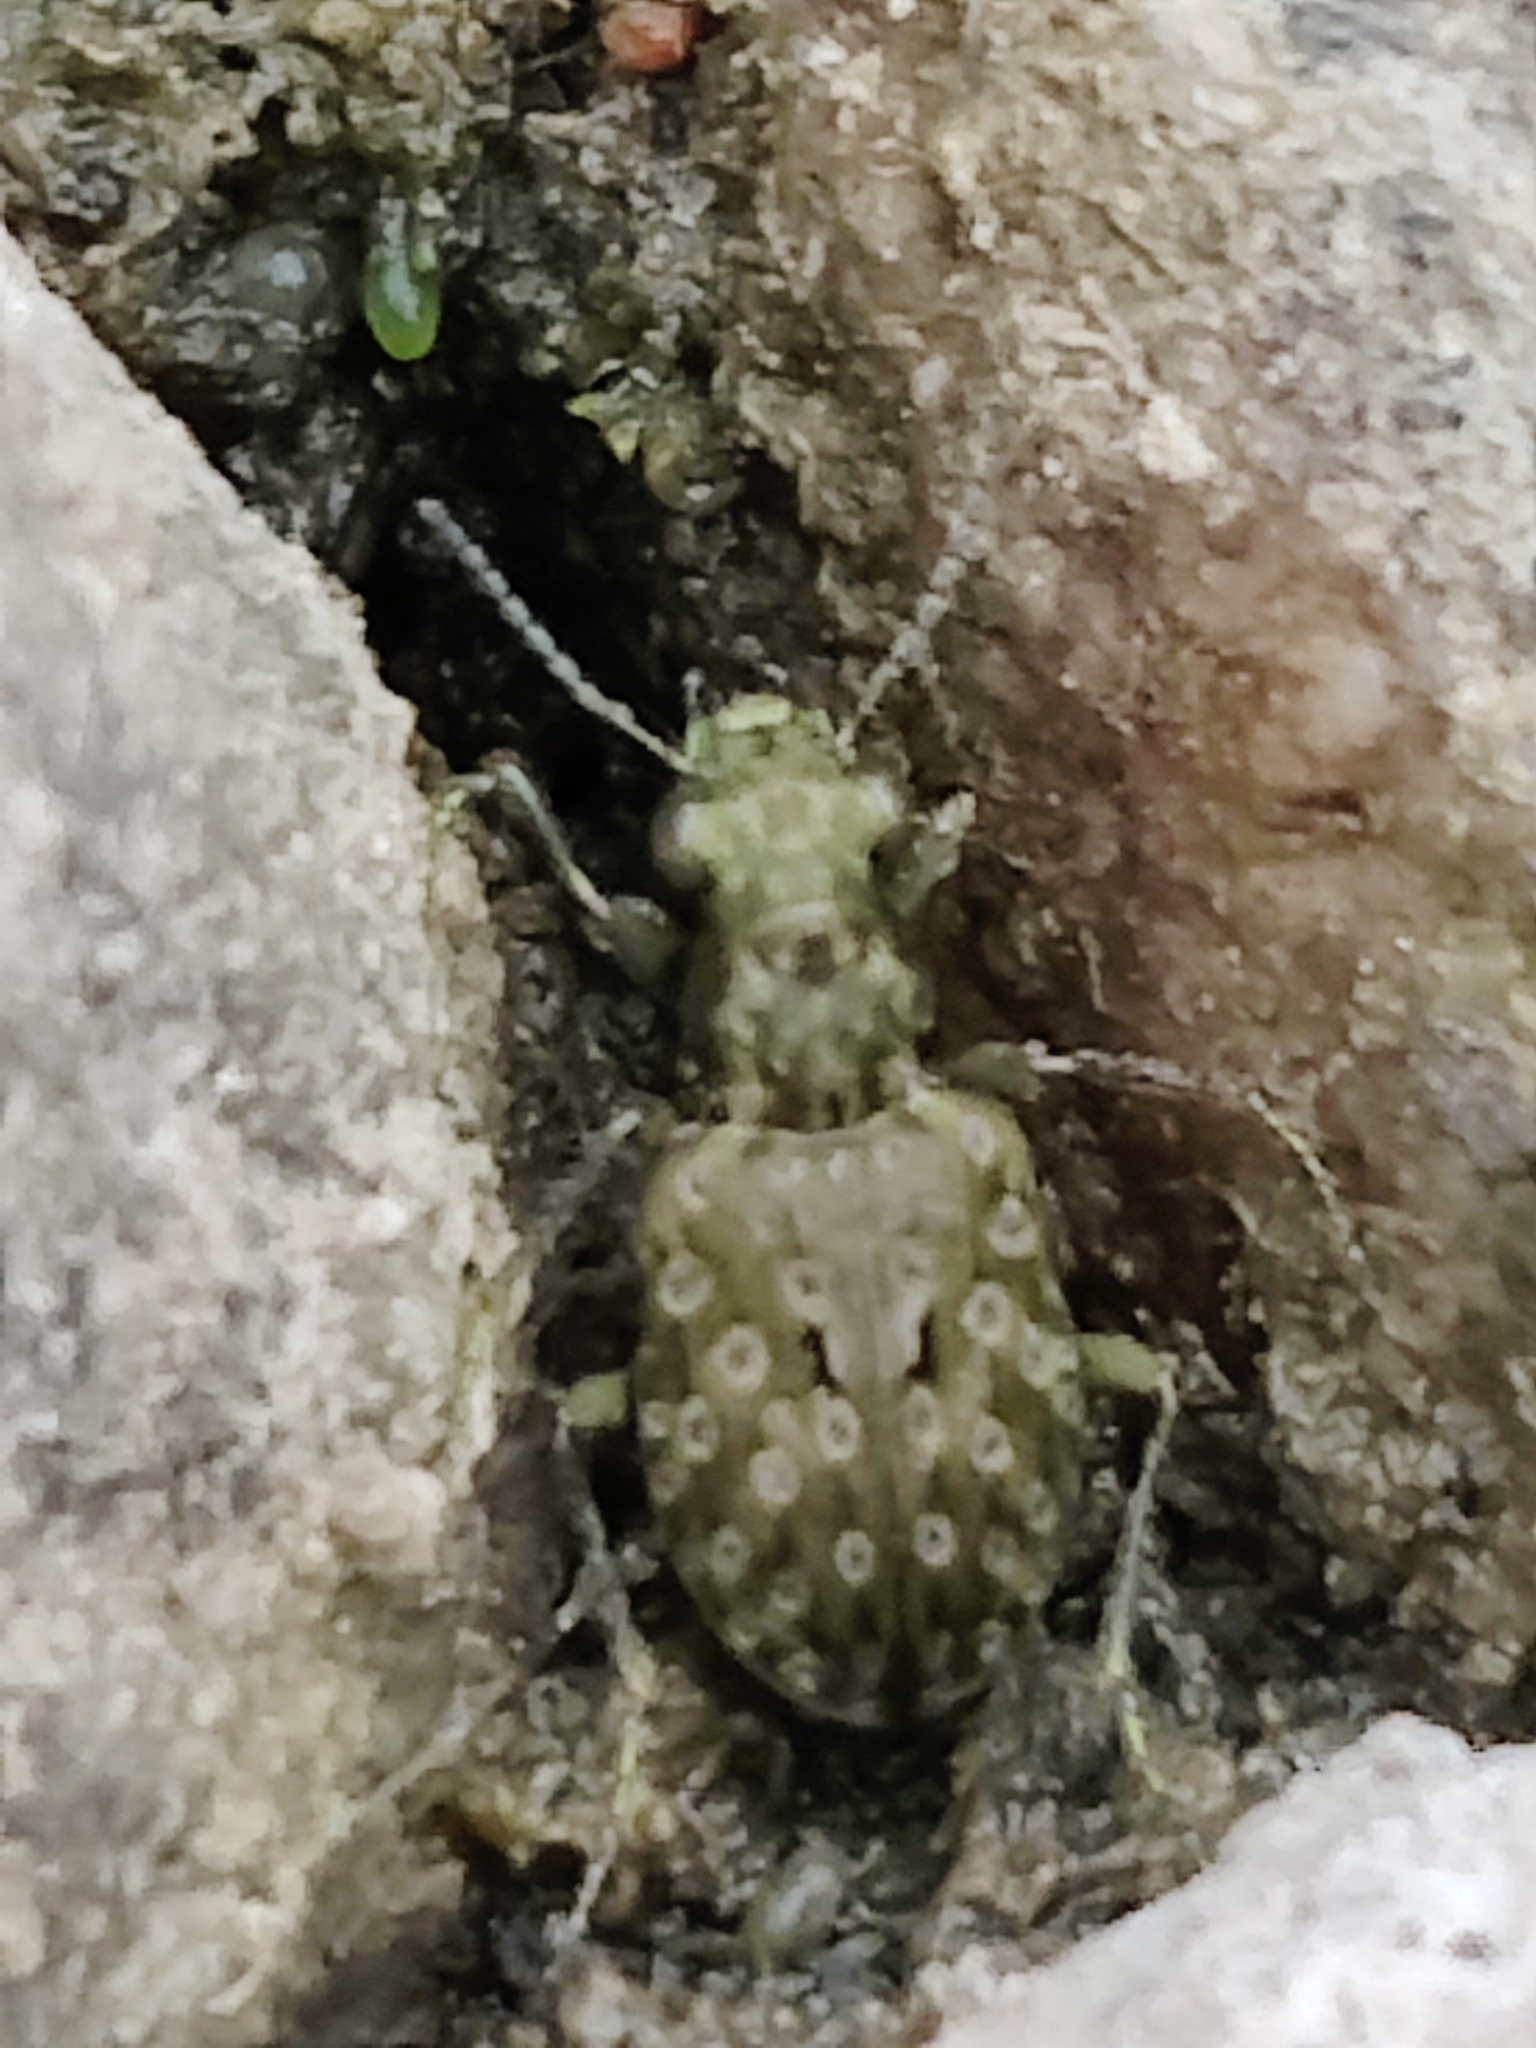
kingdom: Animalia
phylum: Arthropoda
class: Insecta
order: Coleoptera
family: Carabidae
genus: Elaphrus
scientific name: Elaphrus riparius
